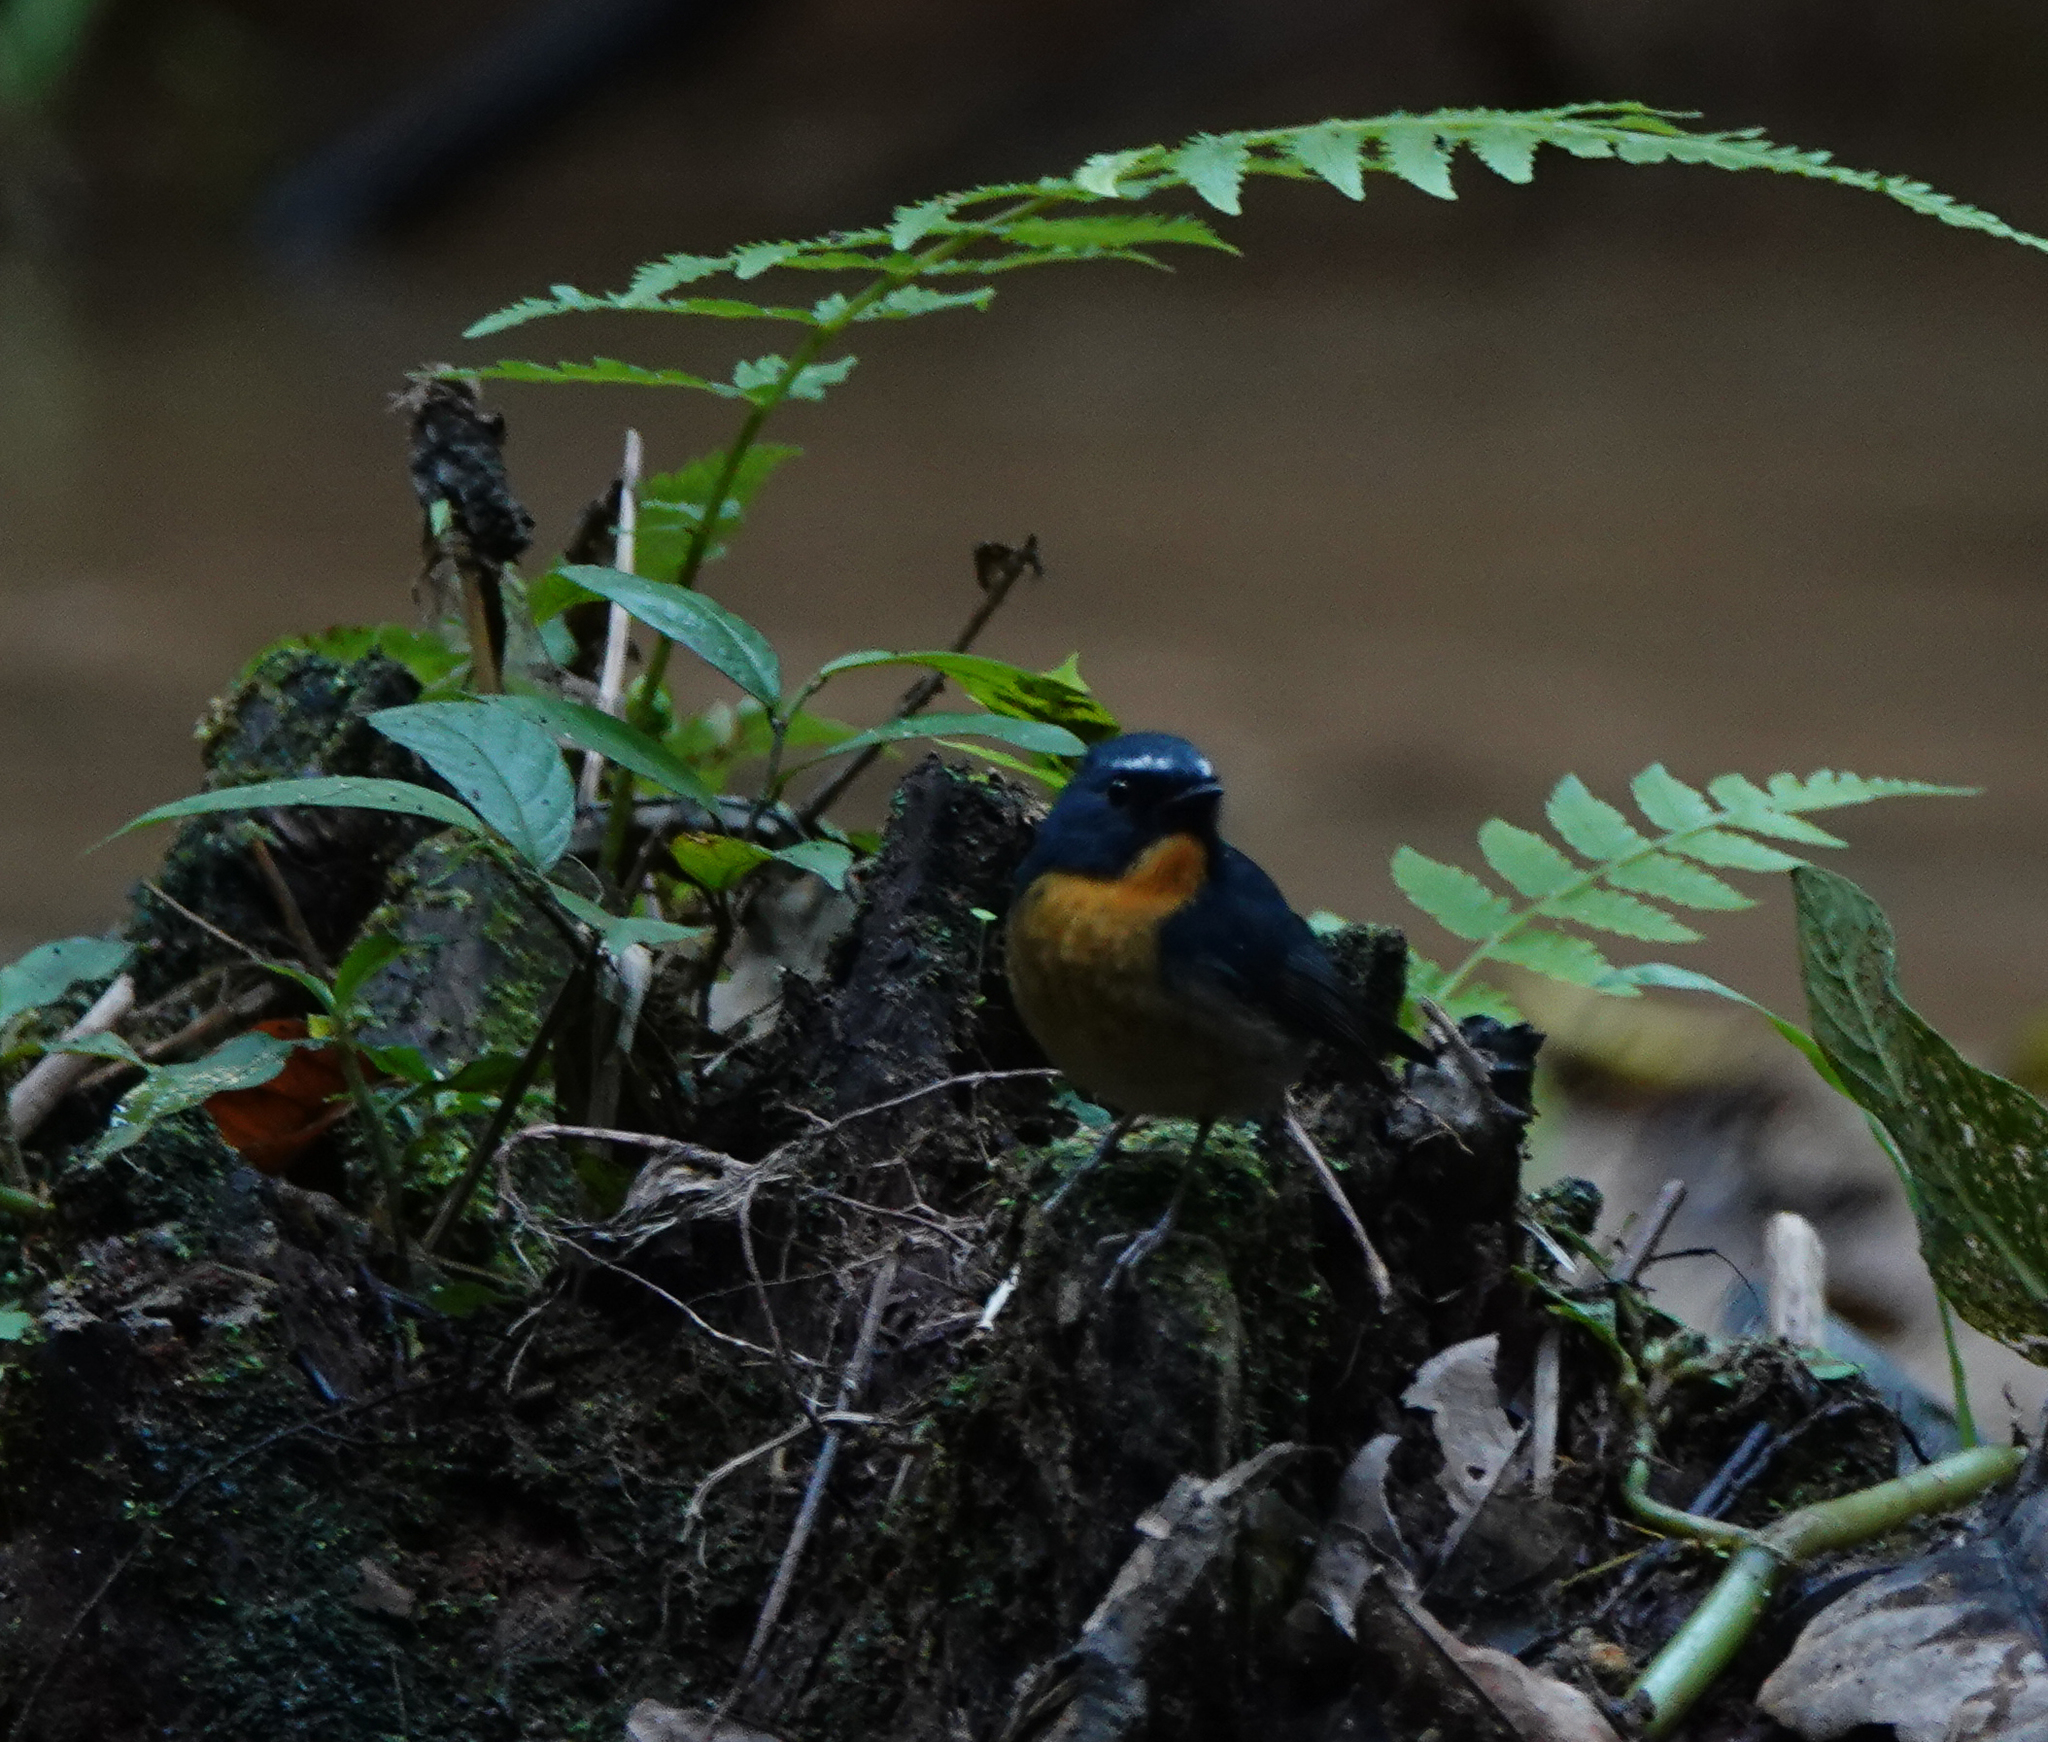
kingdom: Animalia
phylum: Chordata
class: Aves
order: Passeriformes
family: Muscicapidae
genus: Ficedula
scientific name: Ficedula hyperythra
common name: Snowy-browed flycatcher
